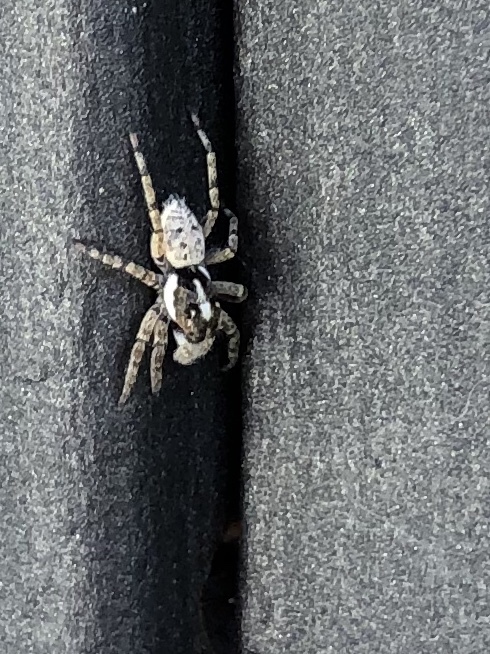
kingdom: Animalia
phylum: Arthropoda
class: Arachnida
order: Araneae
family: Salticidae
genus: Menemerus
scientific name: Menemerus semilimbatus
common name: Jumping spider
